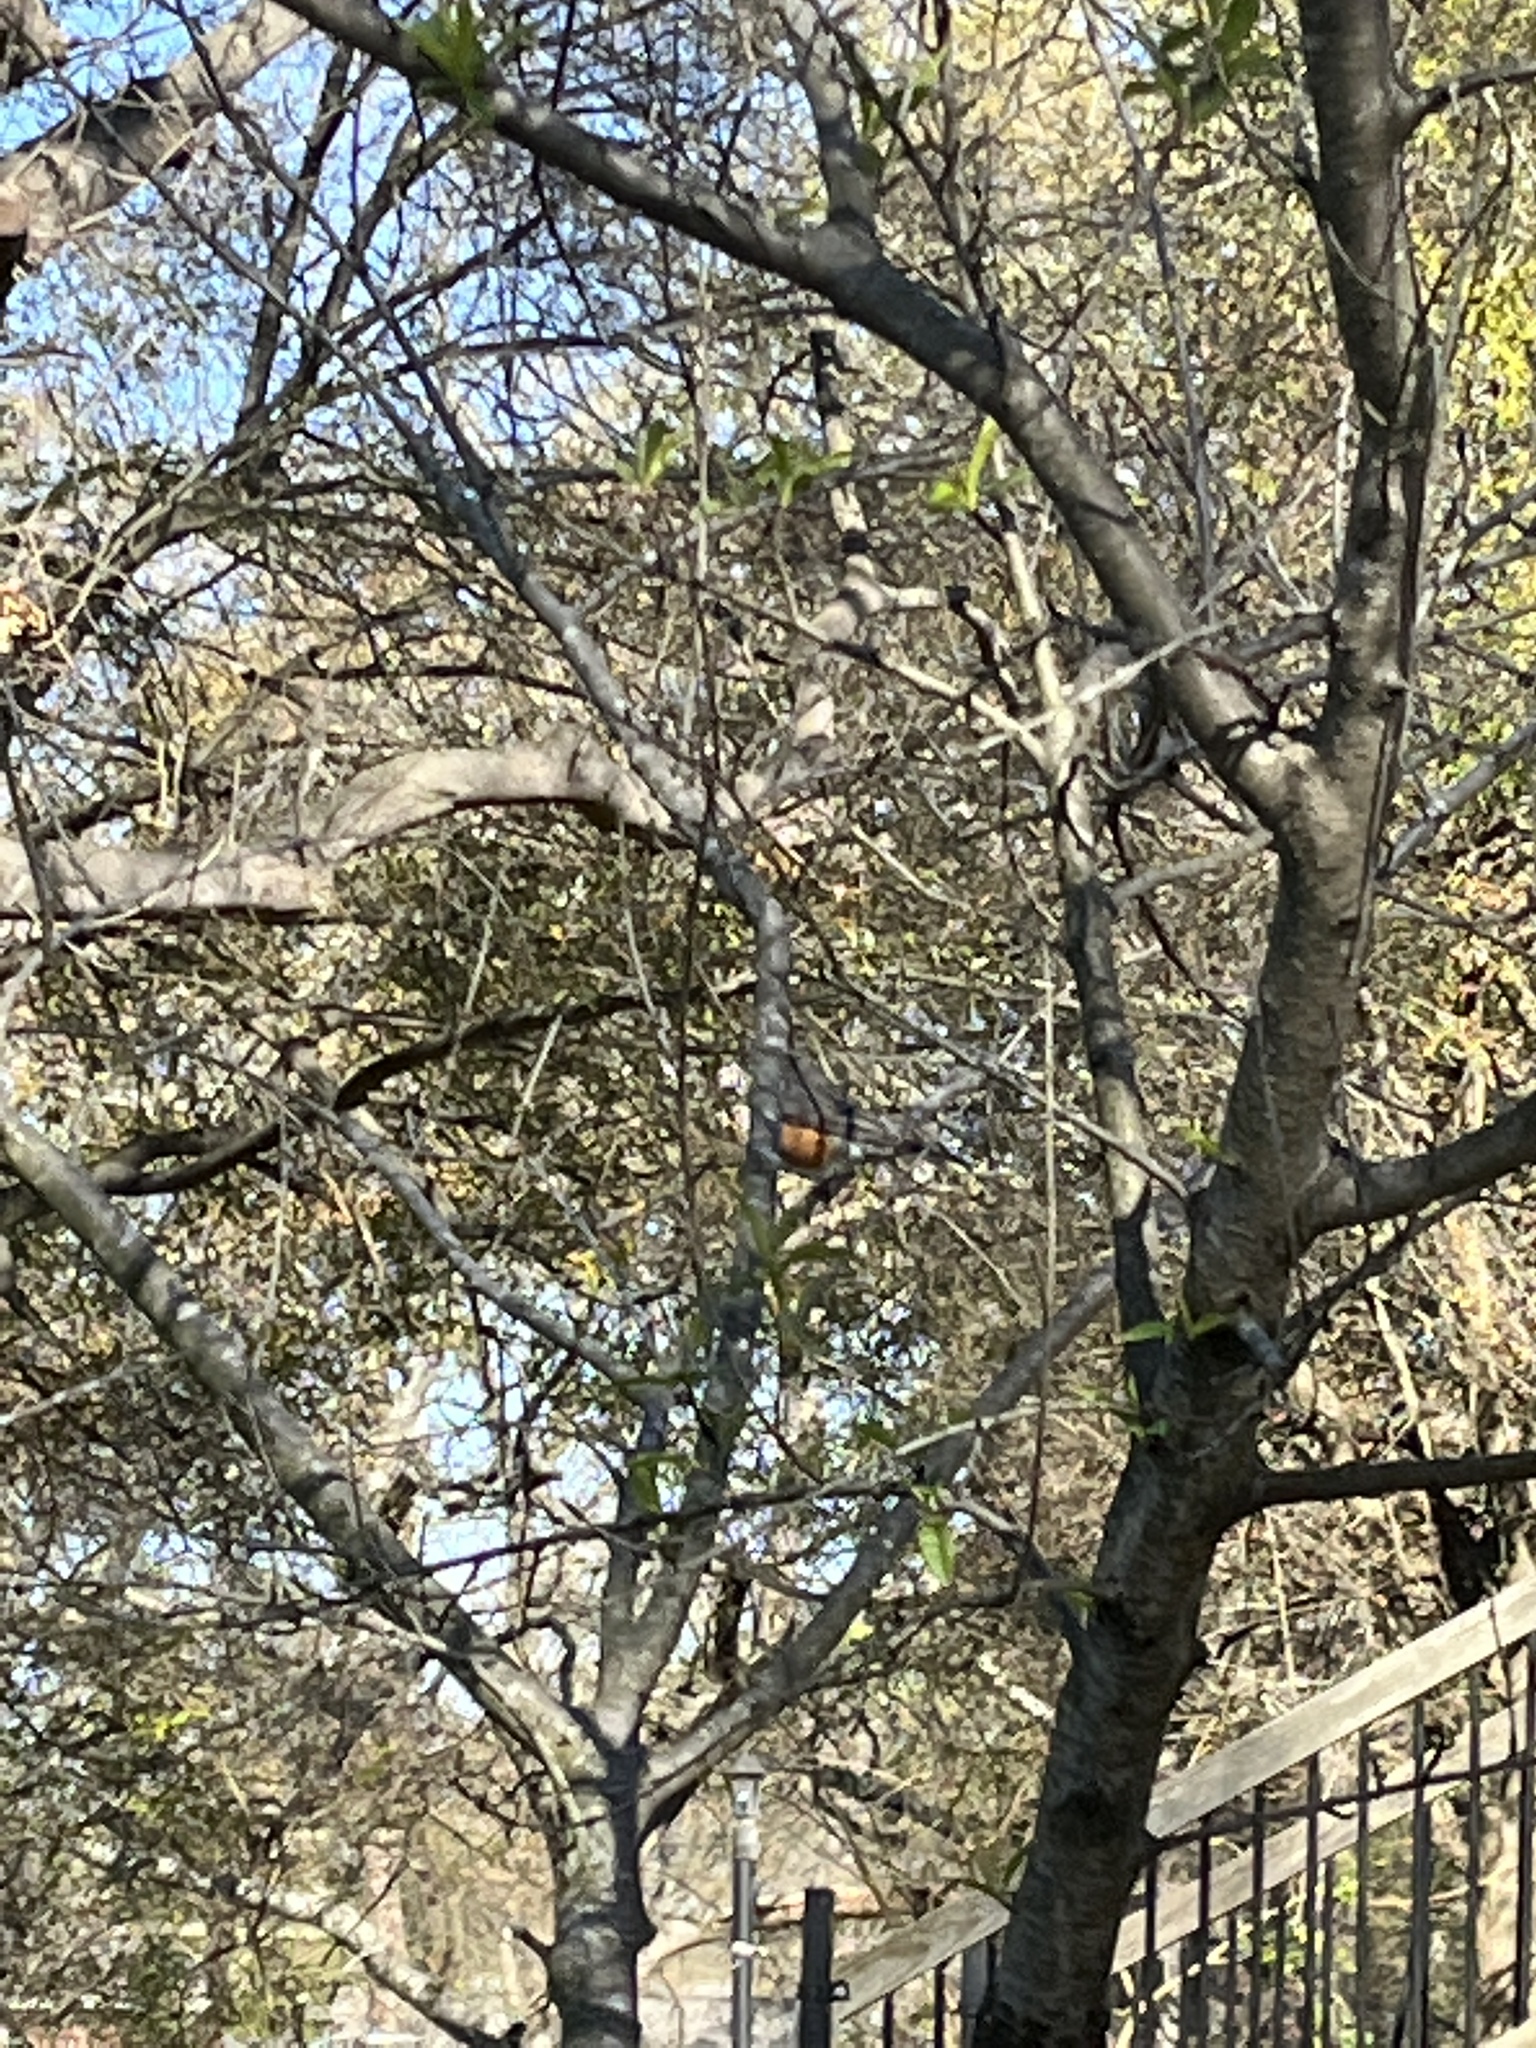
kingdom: Animalia
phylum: Chordata
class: Aves
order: Passeriformes
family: Turdidae
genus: Turdus
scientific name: Turdus migratorius
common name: American robin
